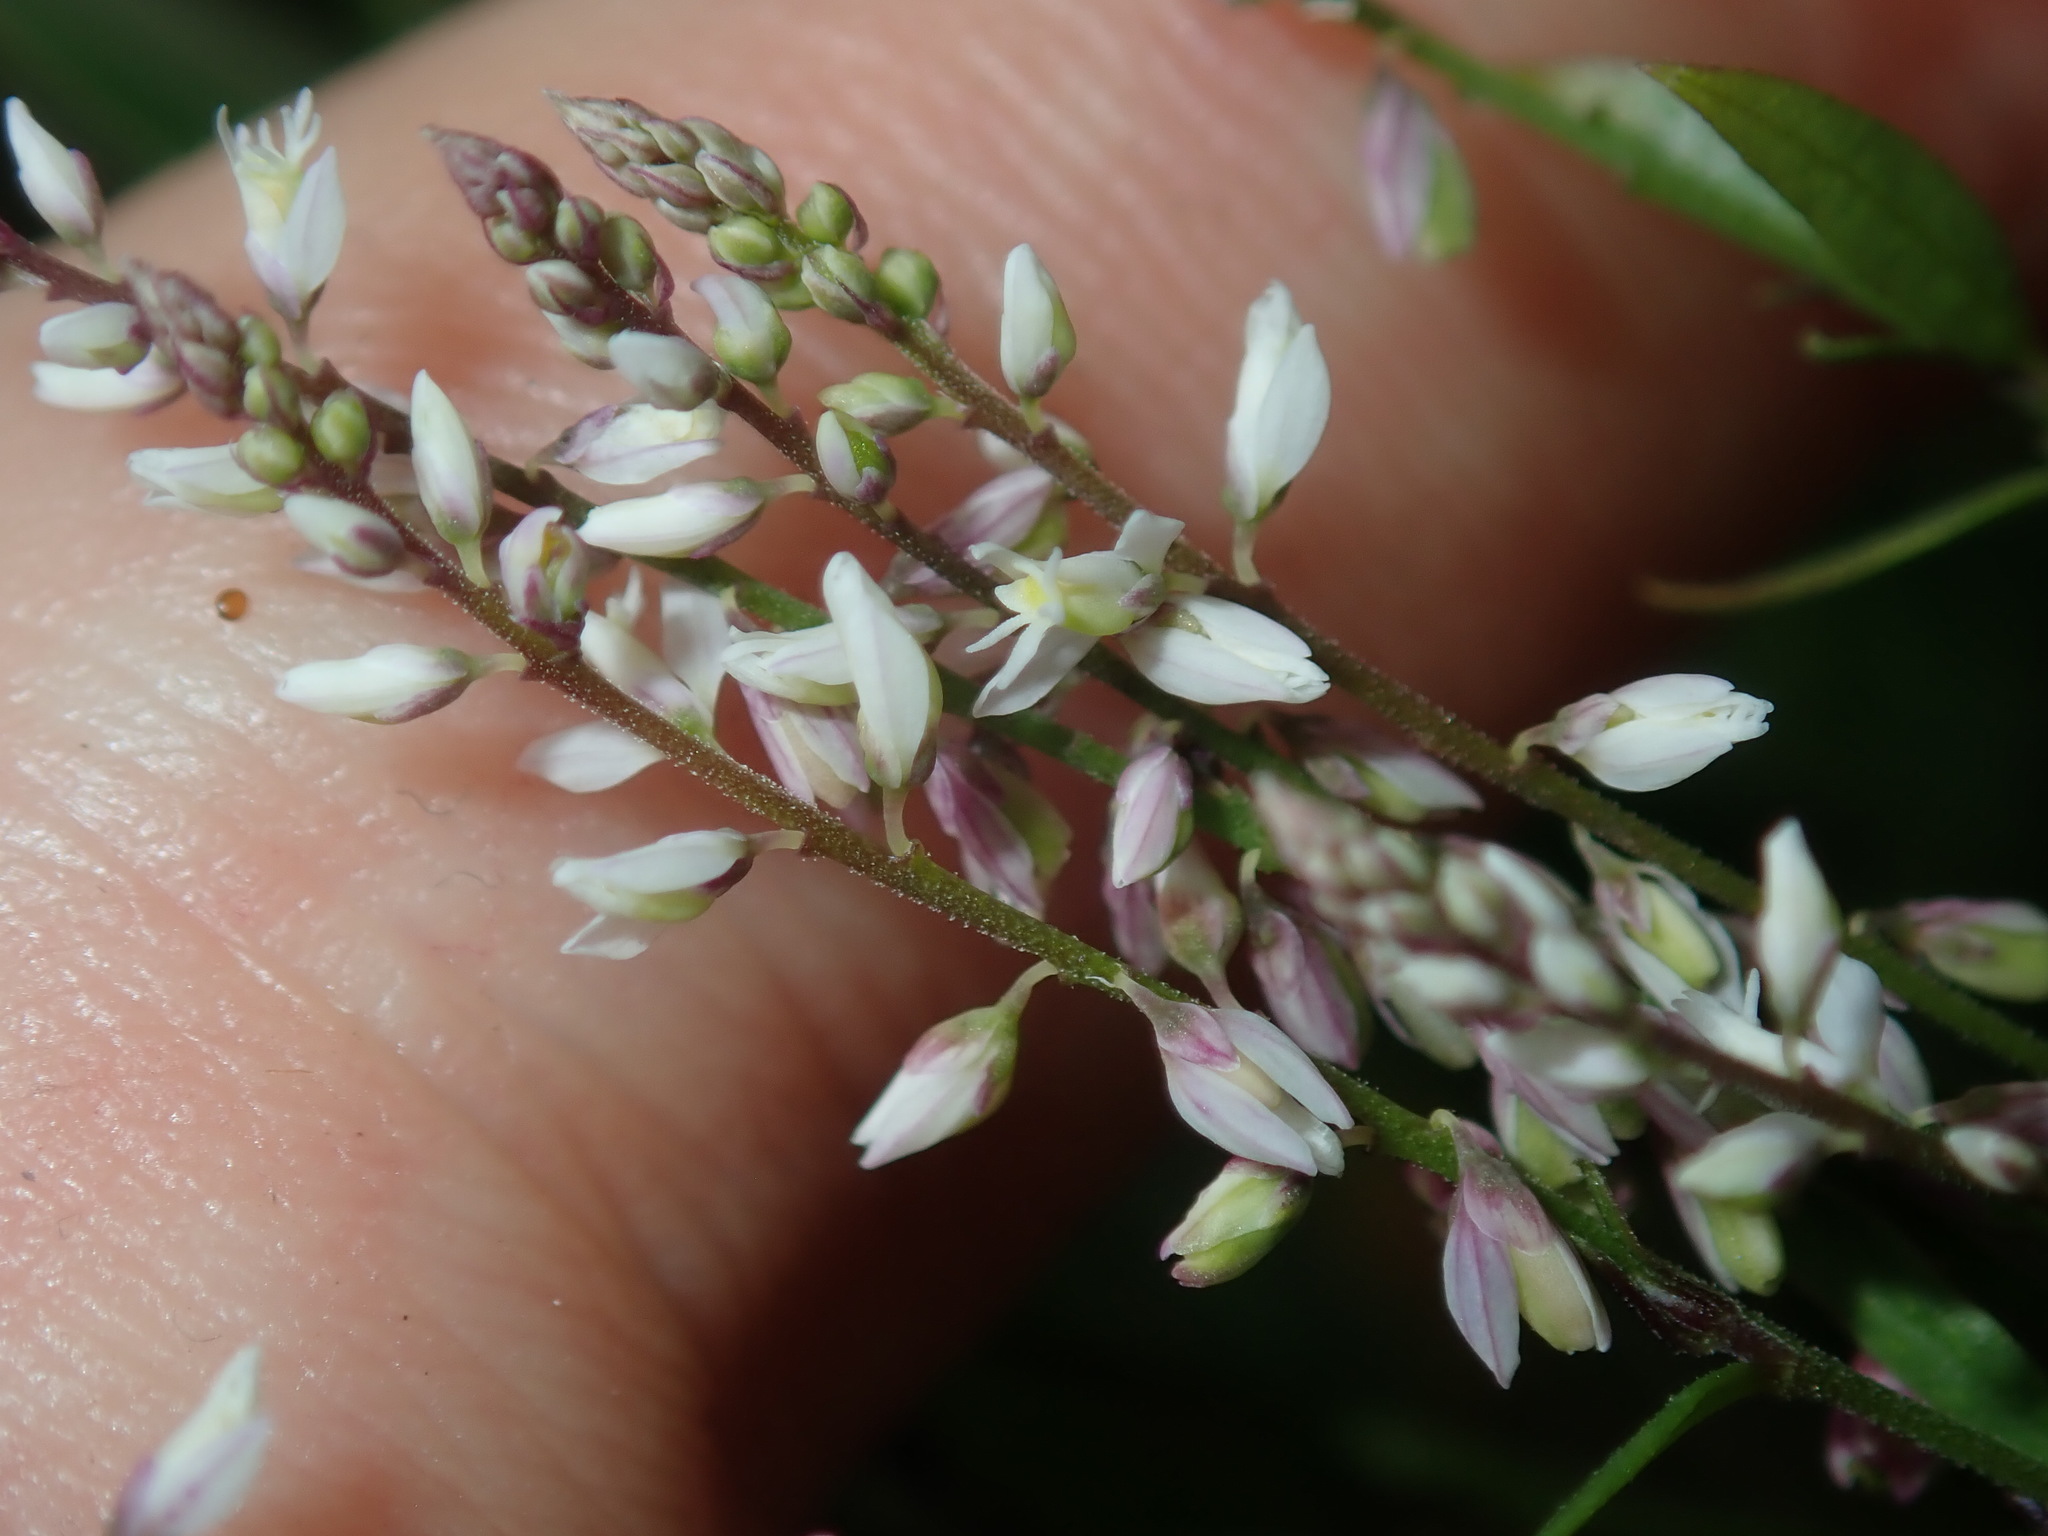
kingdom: Plantae
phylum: Tracheophyta
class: Magnoliopsida
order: Fabales
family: Polygalaceae
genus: Polygala
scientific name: Polygala paniculata
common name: Orosne
